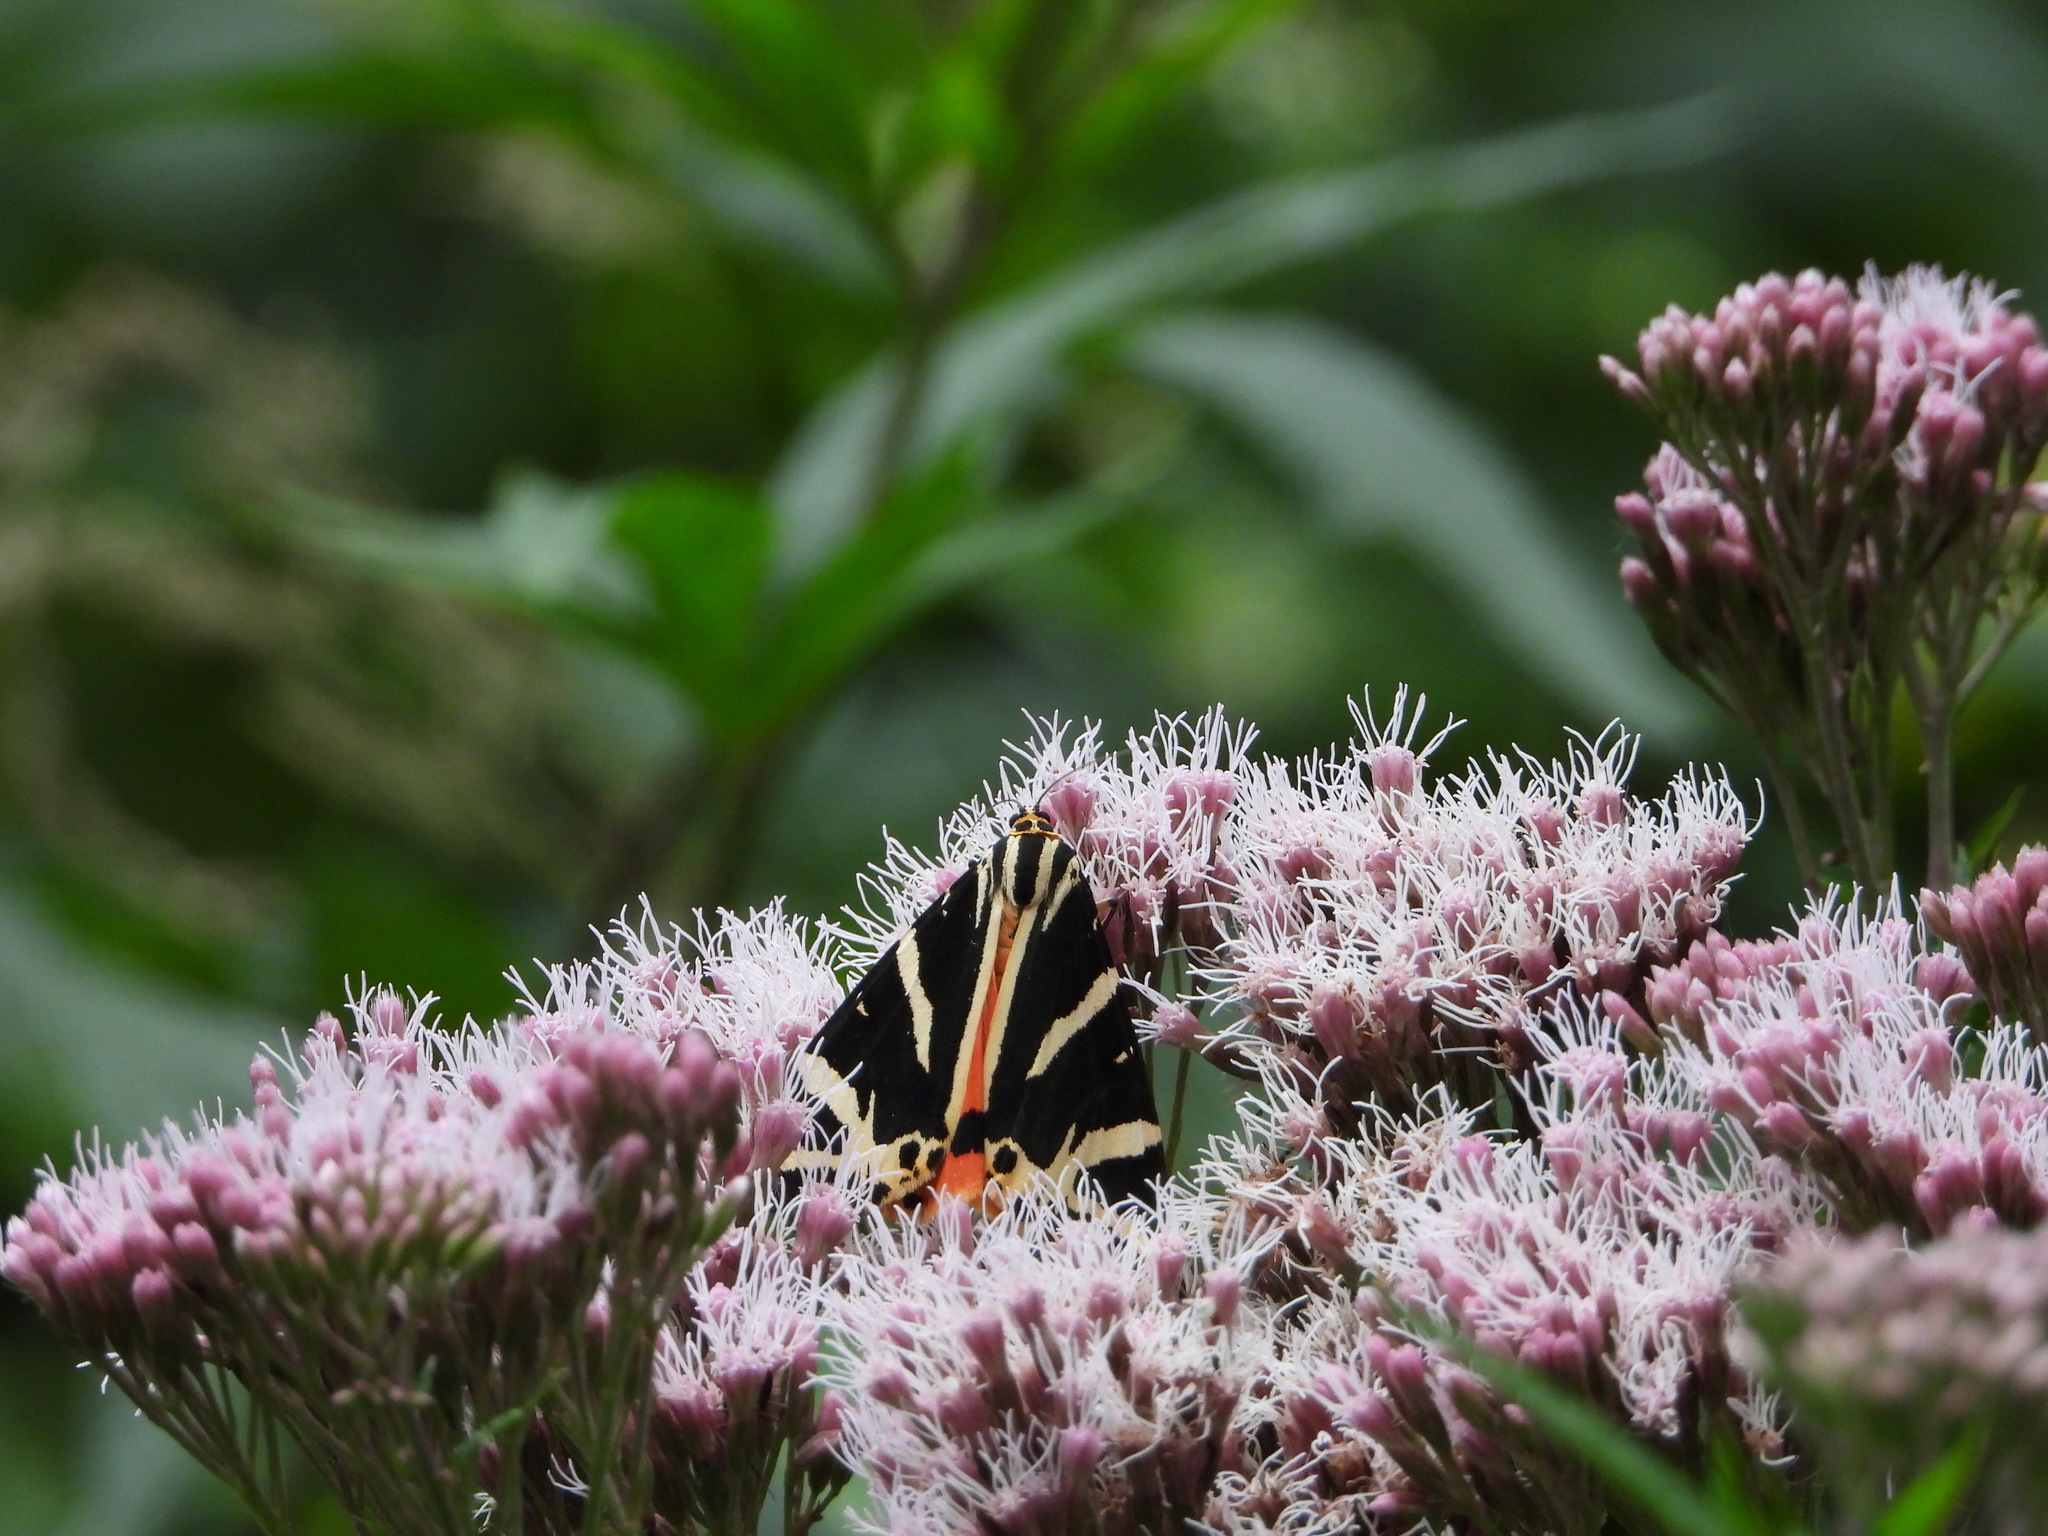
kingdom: Animalia
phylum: Arthropoda
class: Insecta
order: Lepidoptera
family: Erebidae
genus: Euplagia
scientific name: Euplagia quadripunctaria
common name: Jersey tiger
